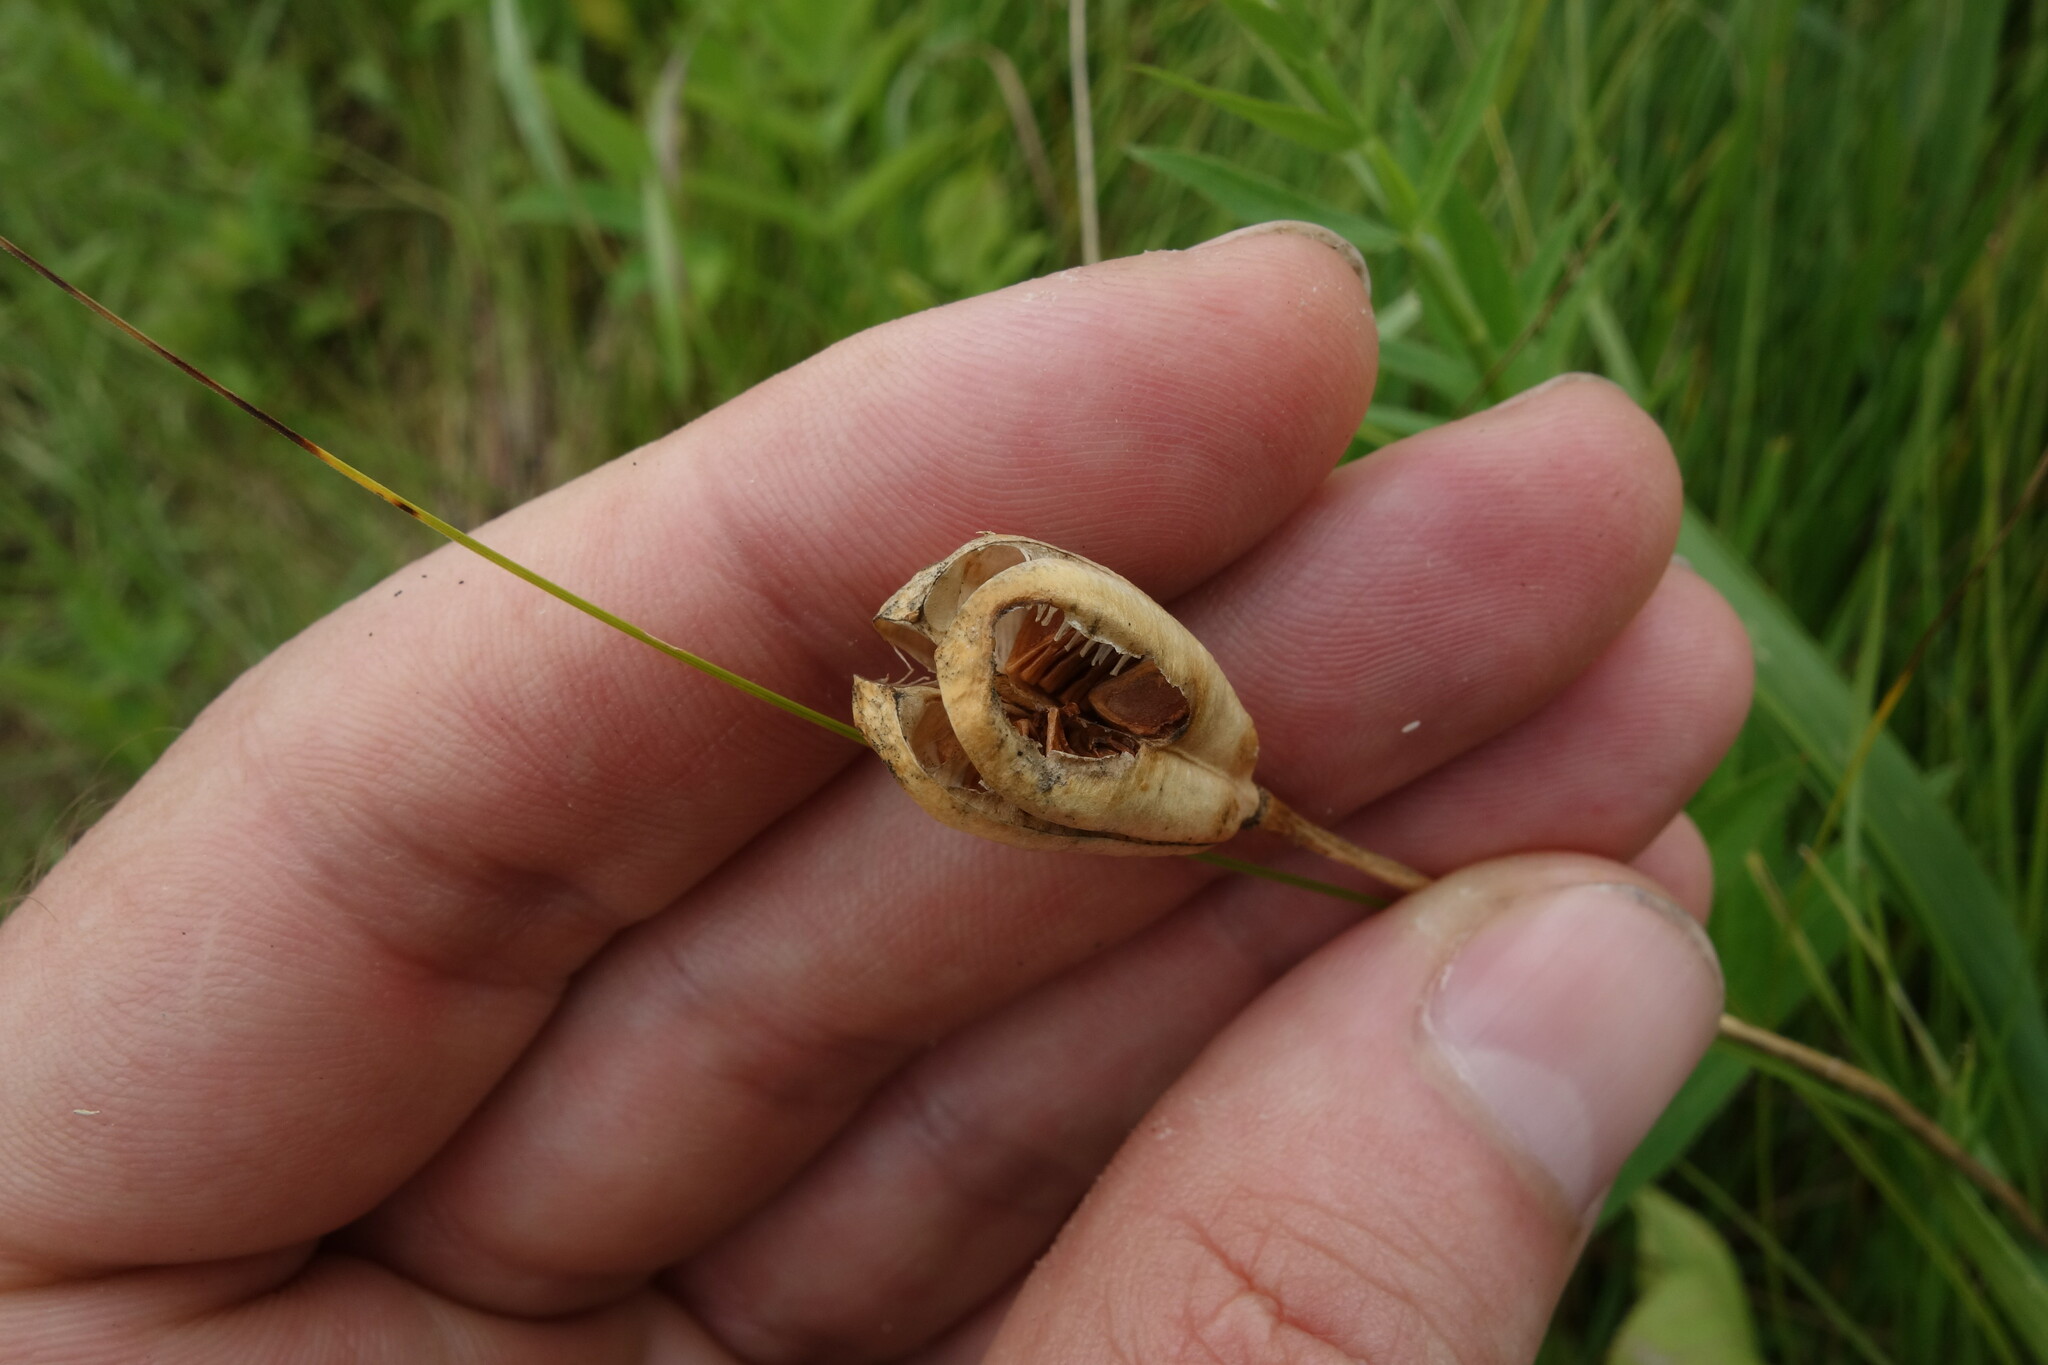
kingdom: Plantae
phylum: Tracheophyta
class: Liliopsida
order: Liliales
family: Liliaceae
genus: Fritillaria
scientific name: Fritillaria meleagroides
